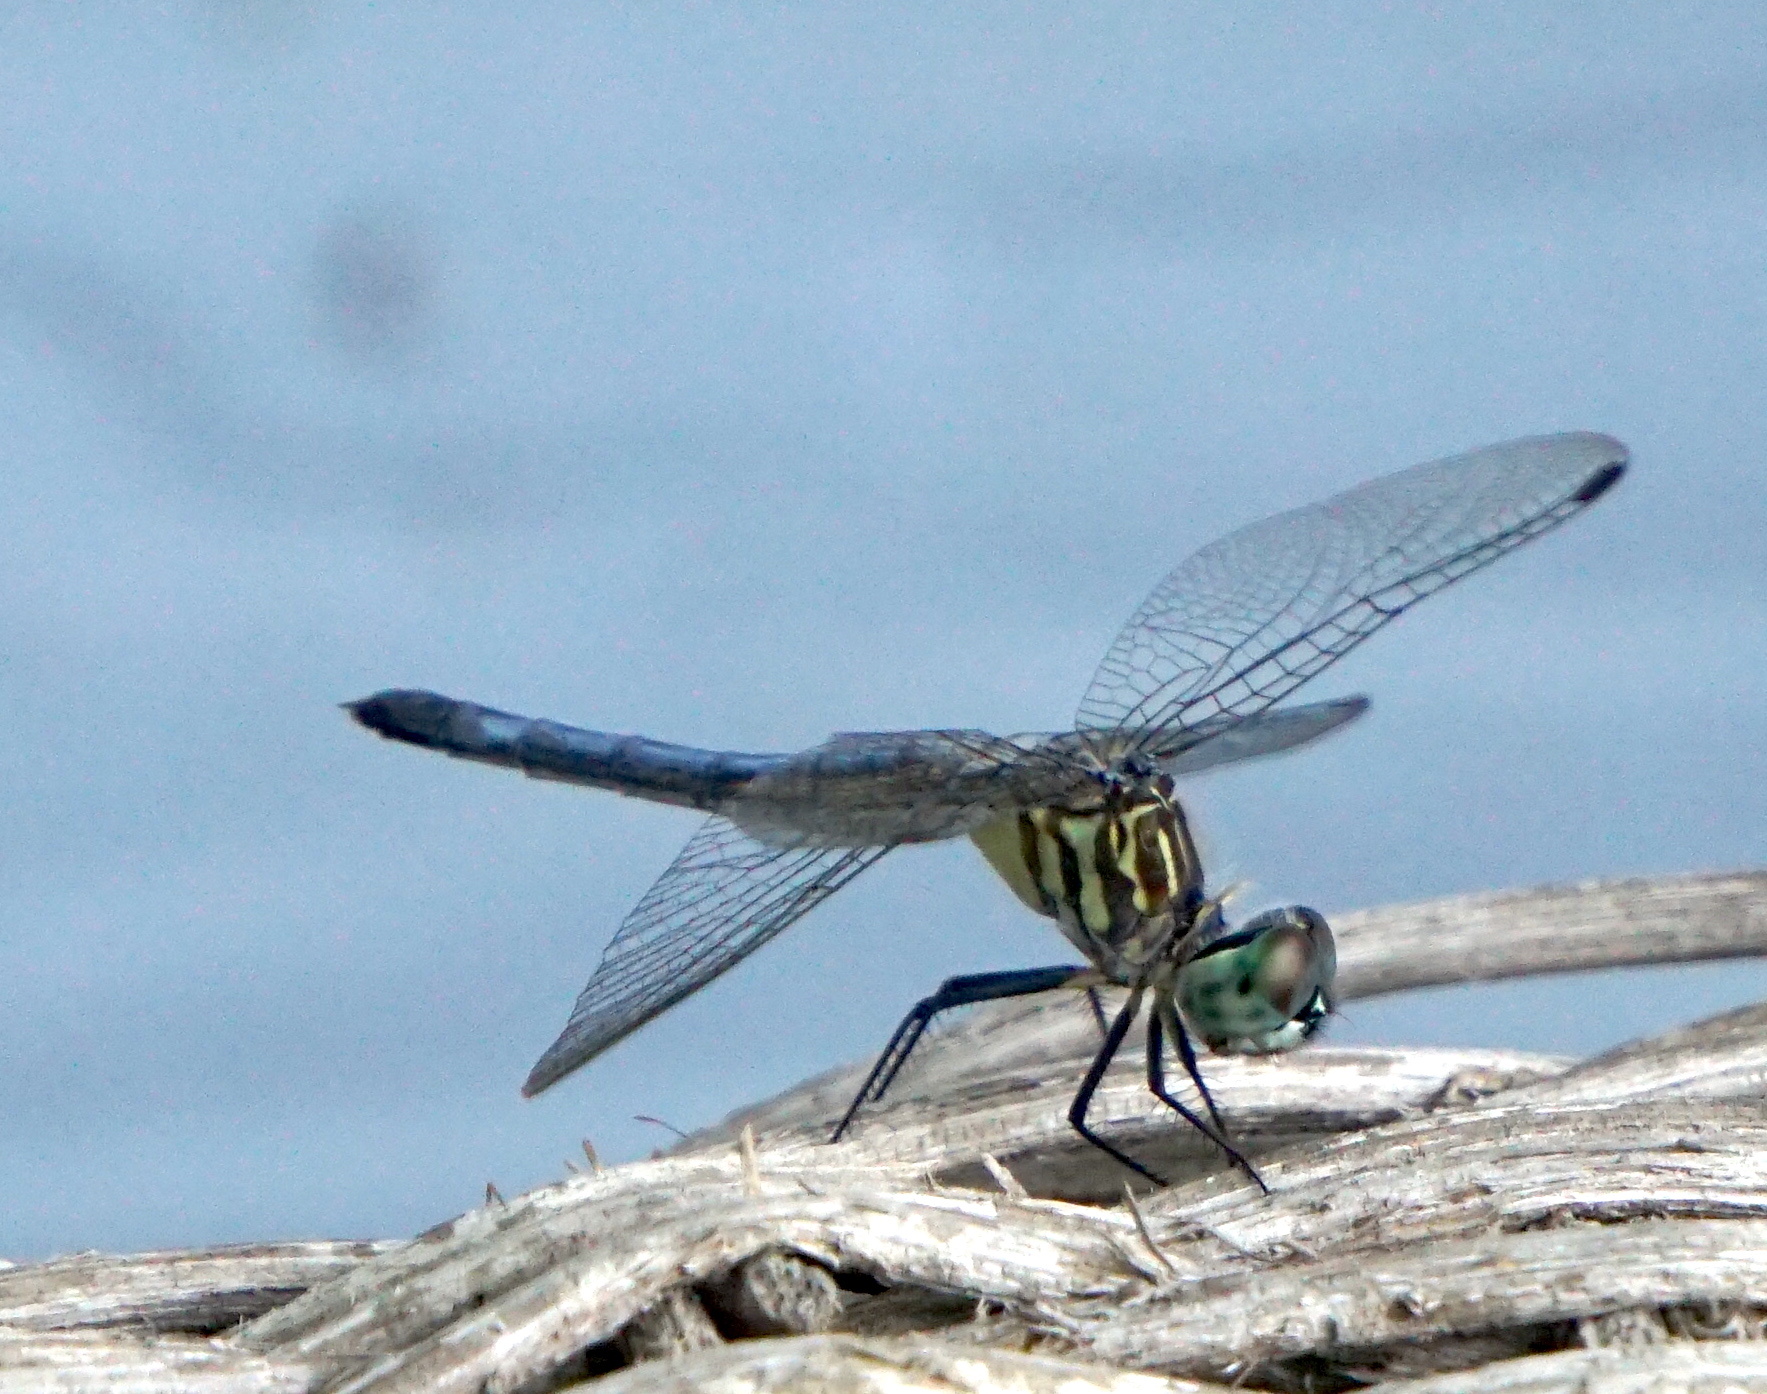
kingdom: Animalia
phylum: Arthropoda
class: Insecta
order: Odonata
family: Libellulidae
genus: Pachydiplax
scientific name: Pachydiplax longipennis
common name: Blue dasher
